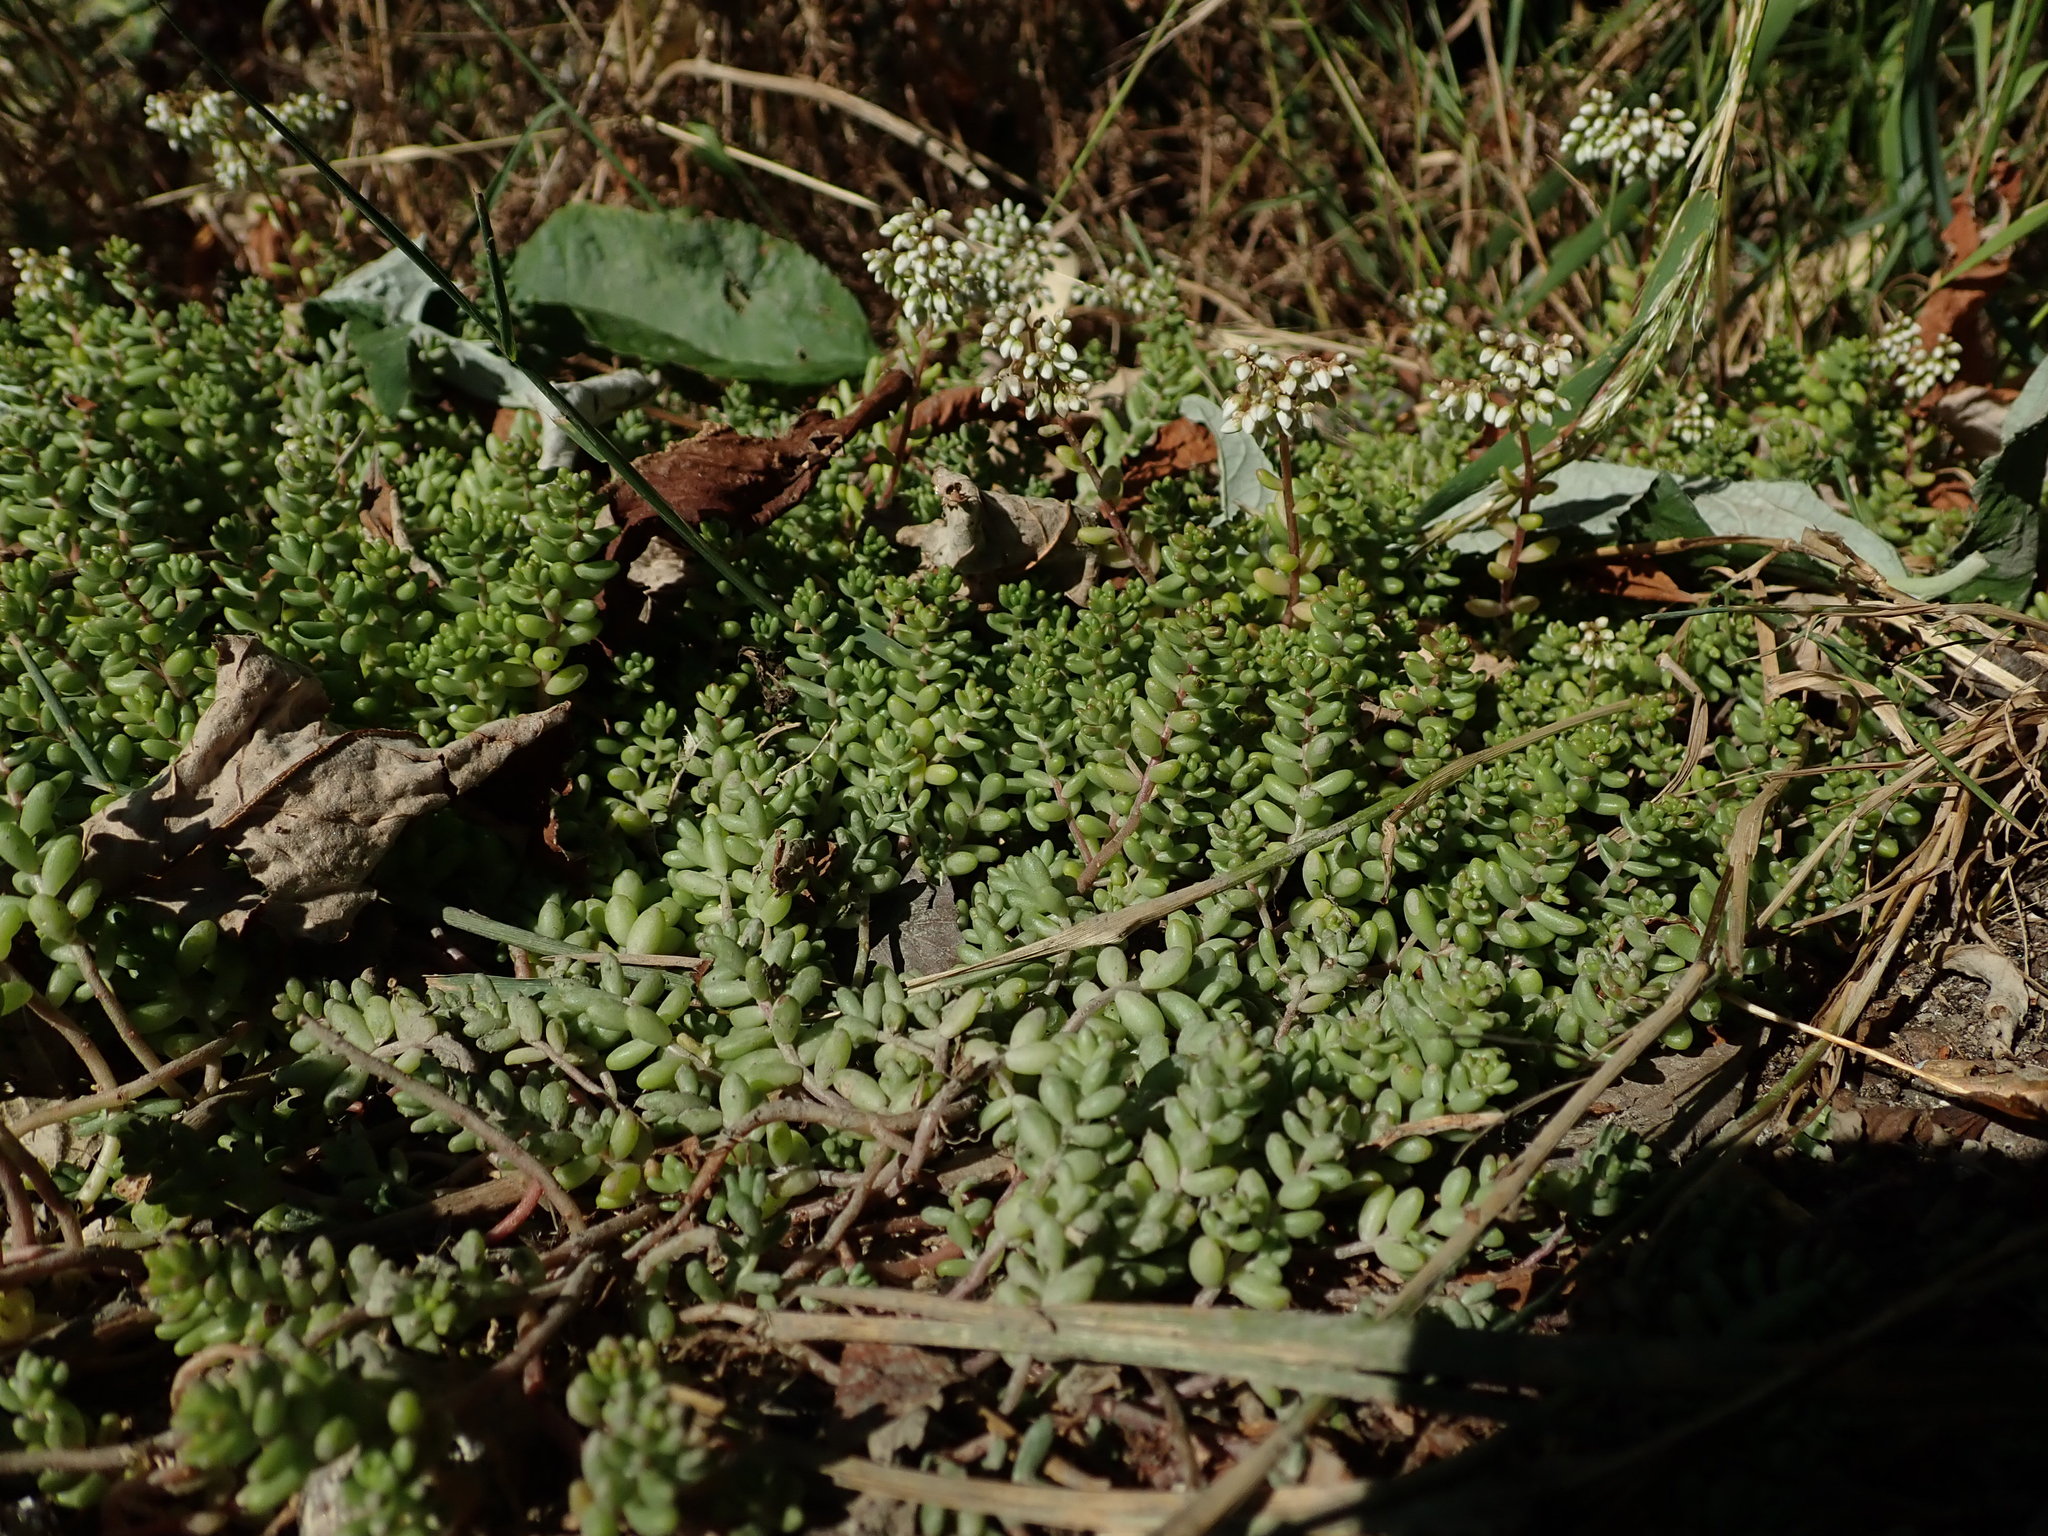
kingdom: Plantae
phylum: Tracheophyta
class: Magnoliopsida
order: Saxifragales
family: Crassulaceae
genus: Sedum
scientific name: Sedum album
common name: White stonecrop
